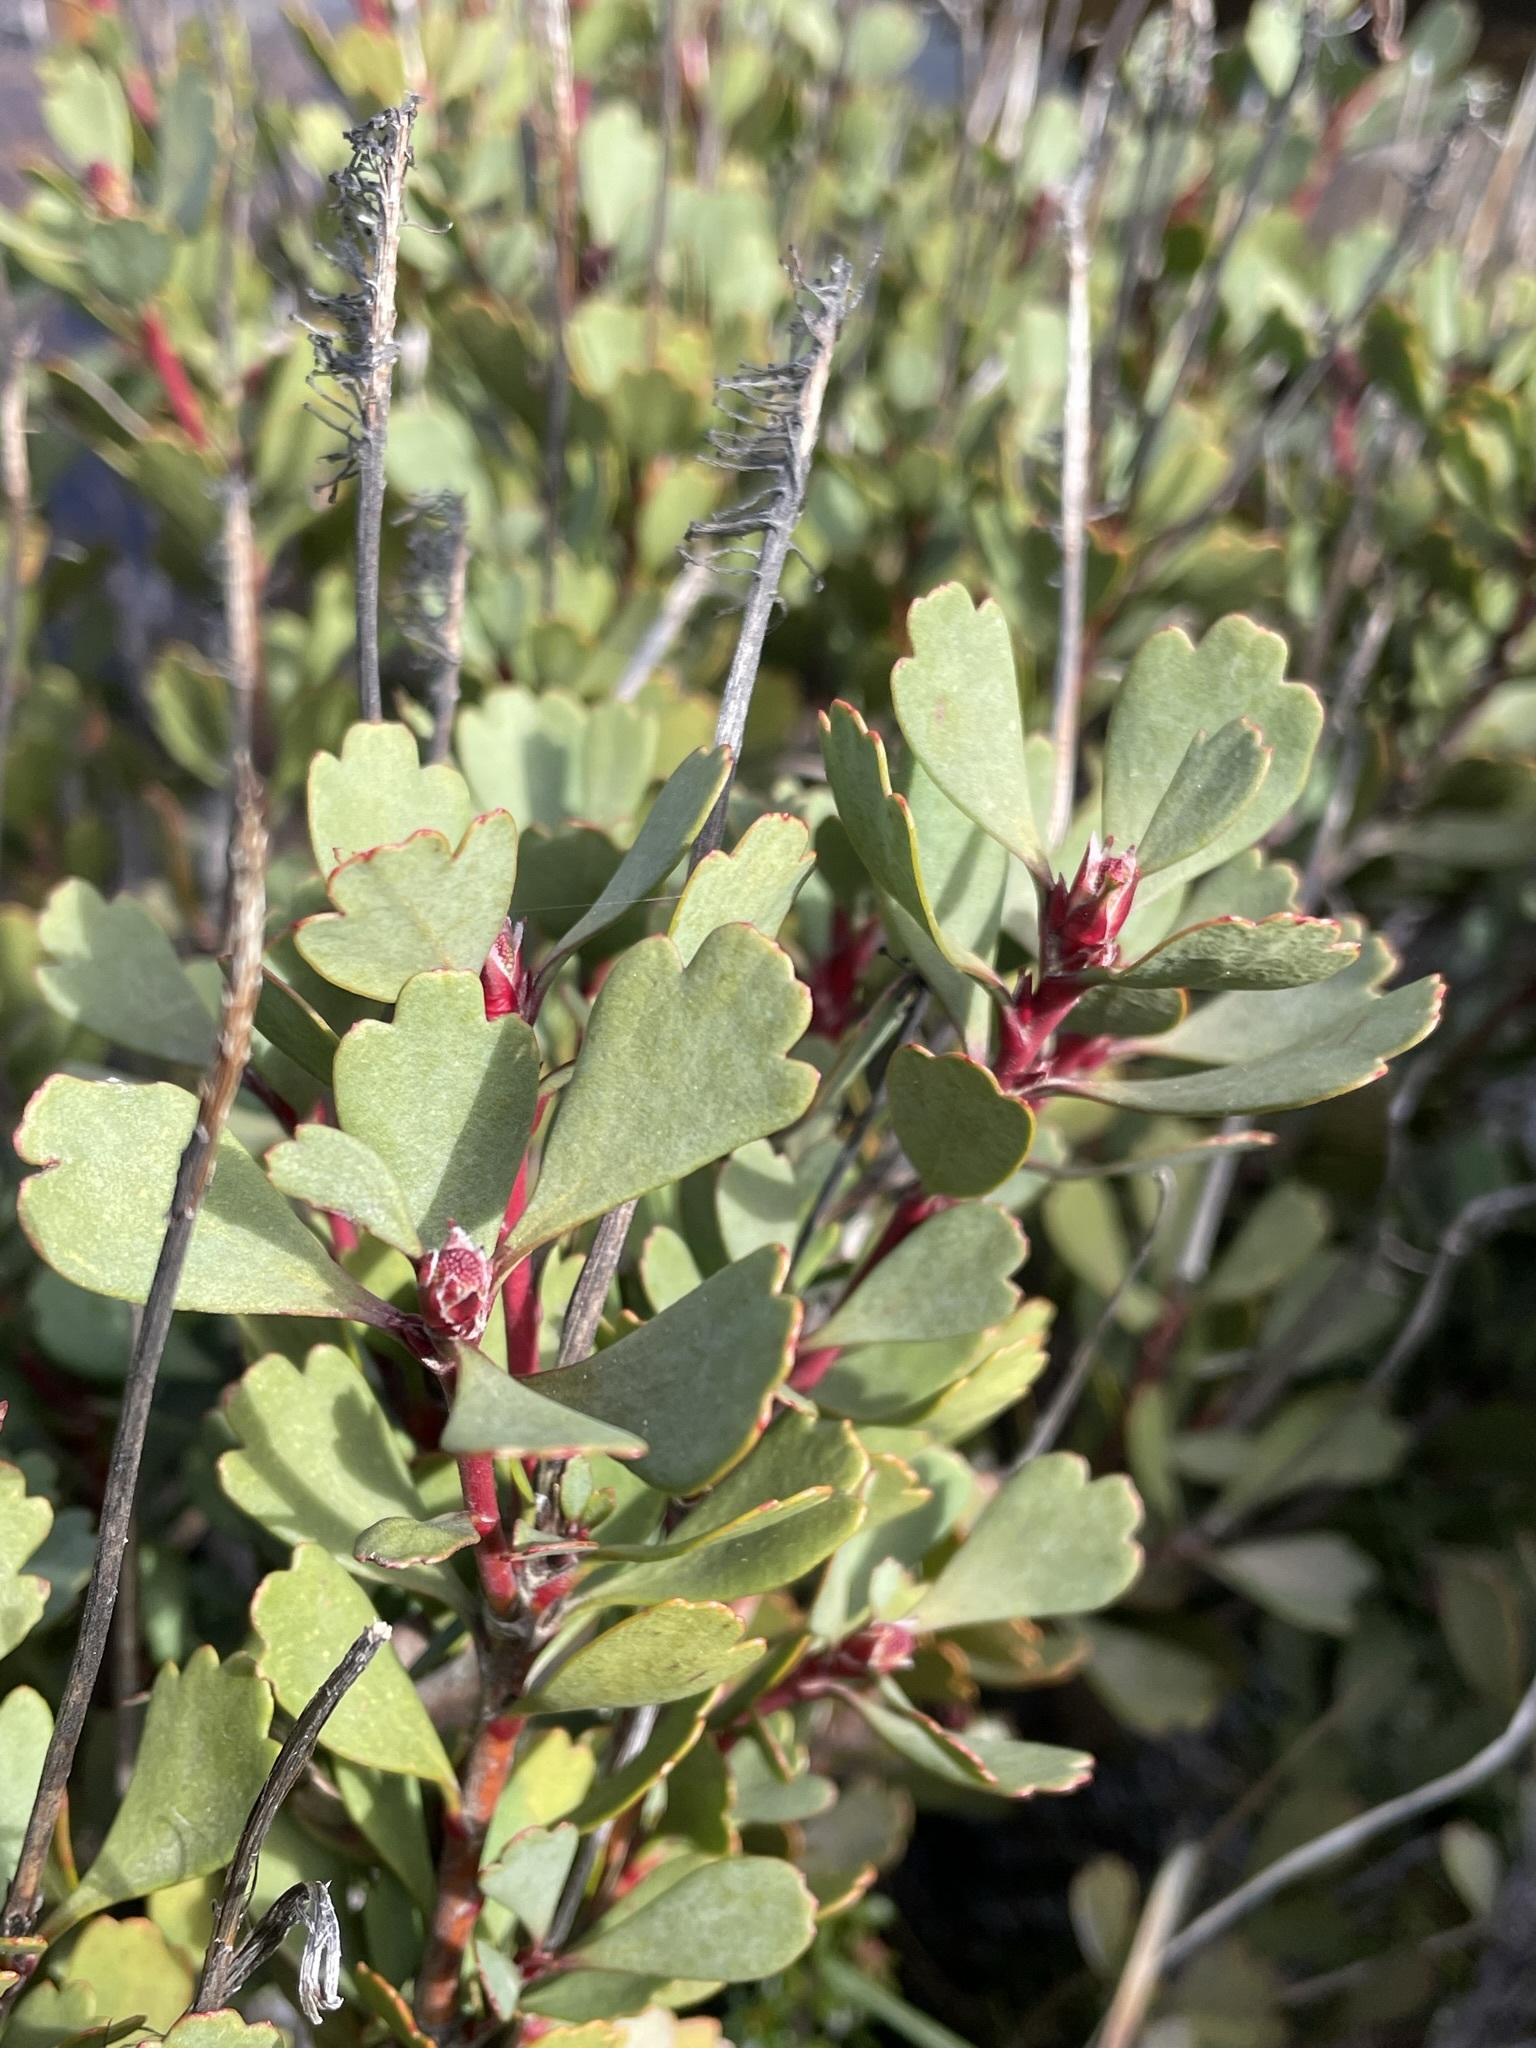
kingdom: Plantae
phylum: Tracheophyta
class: Magnoliopsida
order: Proteales
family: Proteaceae
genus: Bellendena
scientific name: Bellendena montana
